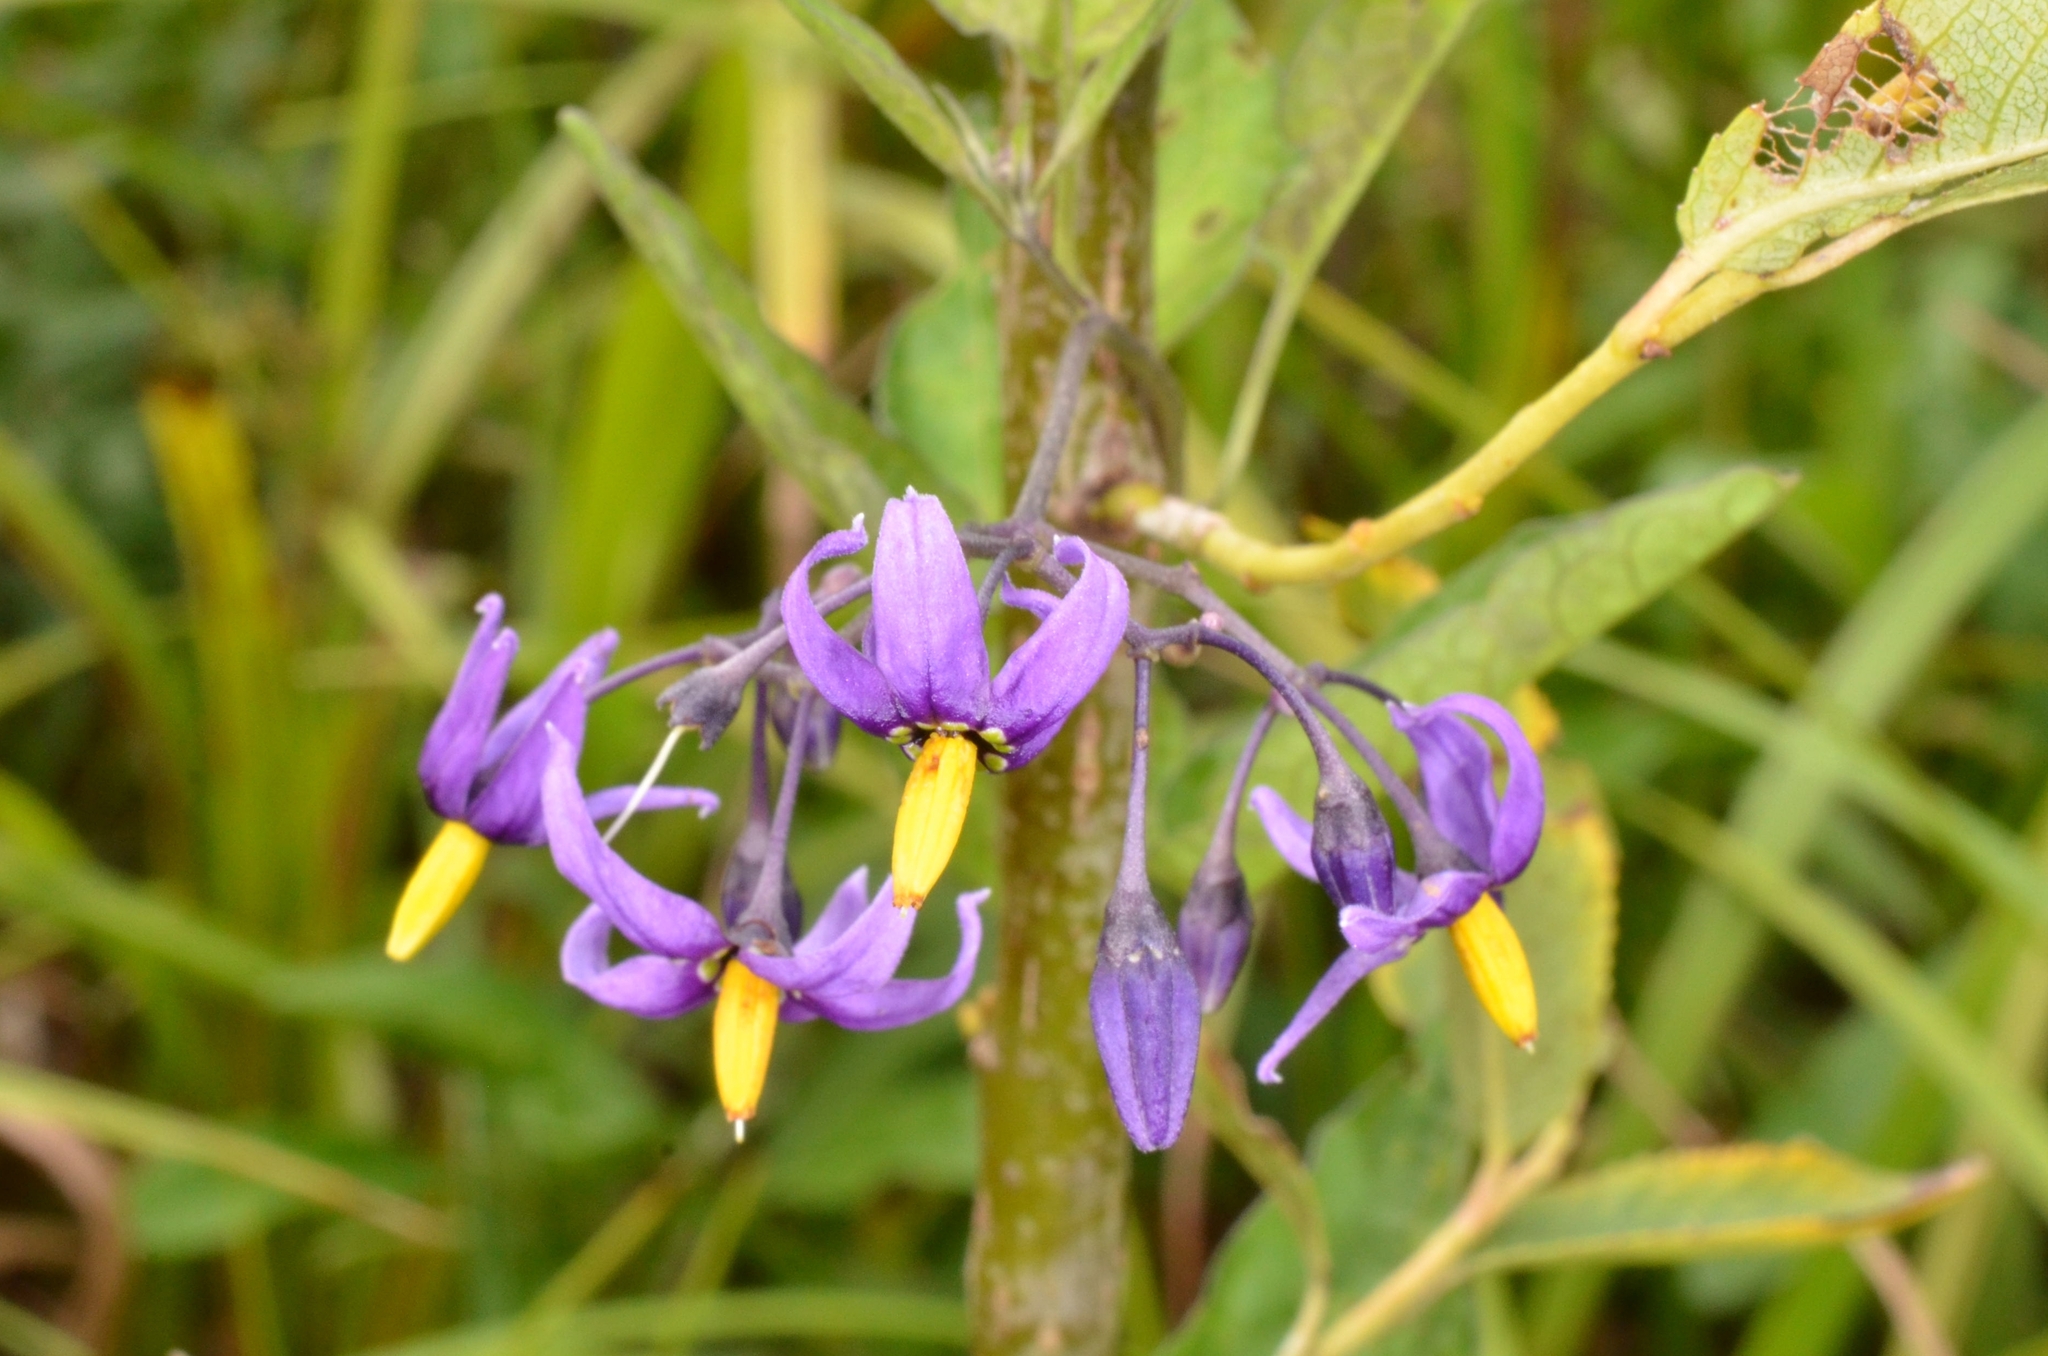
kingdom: Plantae
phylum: Tracheophyta
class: Magnoliopsida
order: Solanales
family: Solanaceae
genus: Solanum
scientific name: Solanum dulcamara
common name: Climbing nightshade
